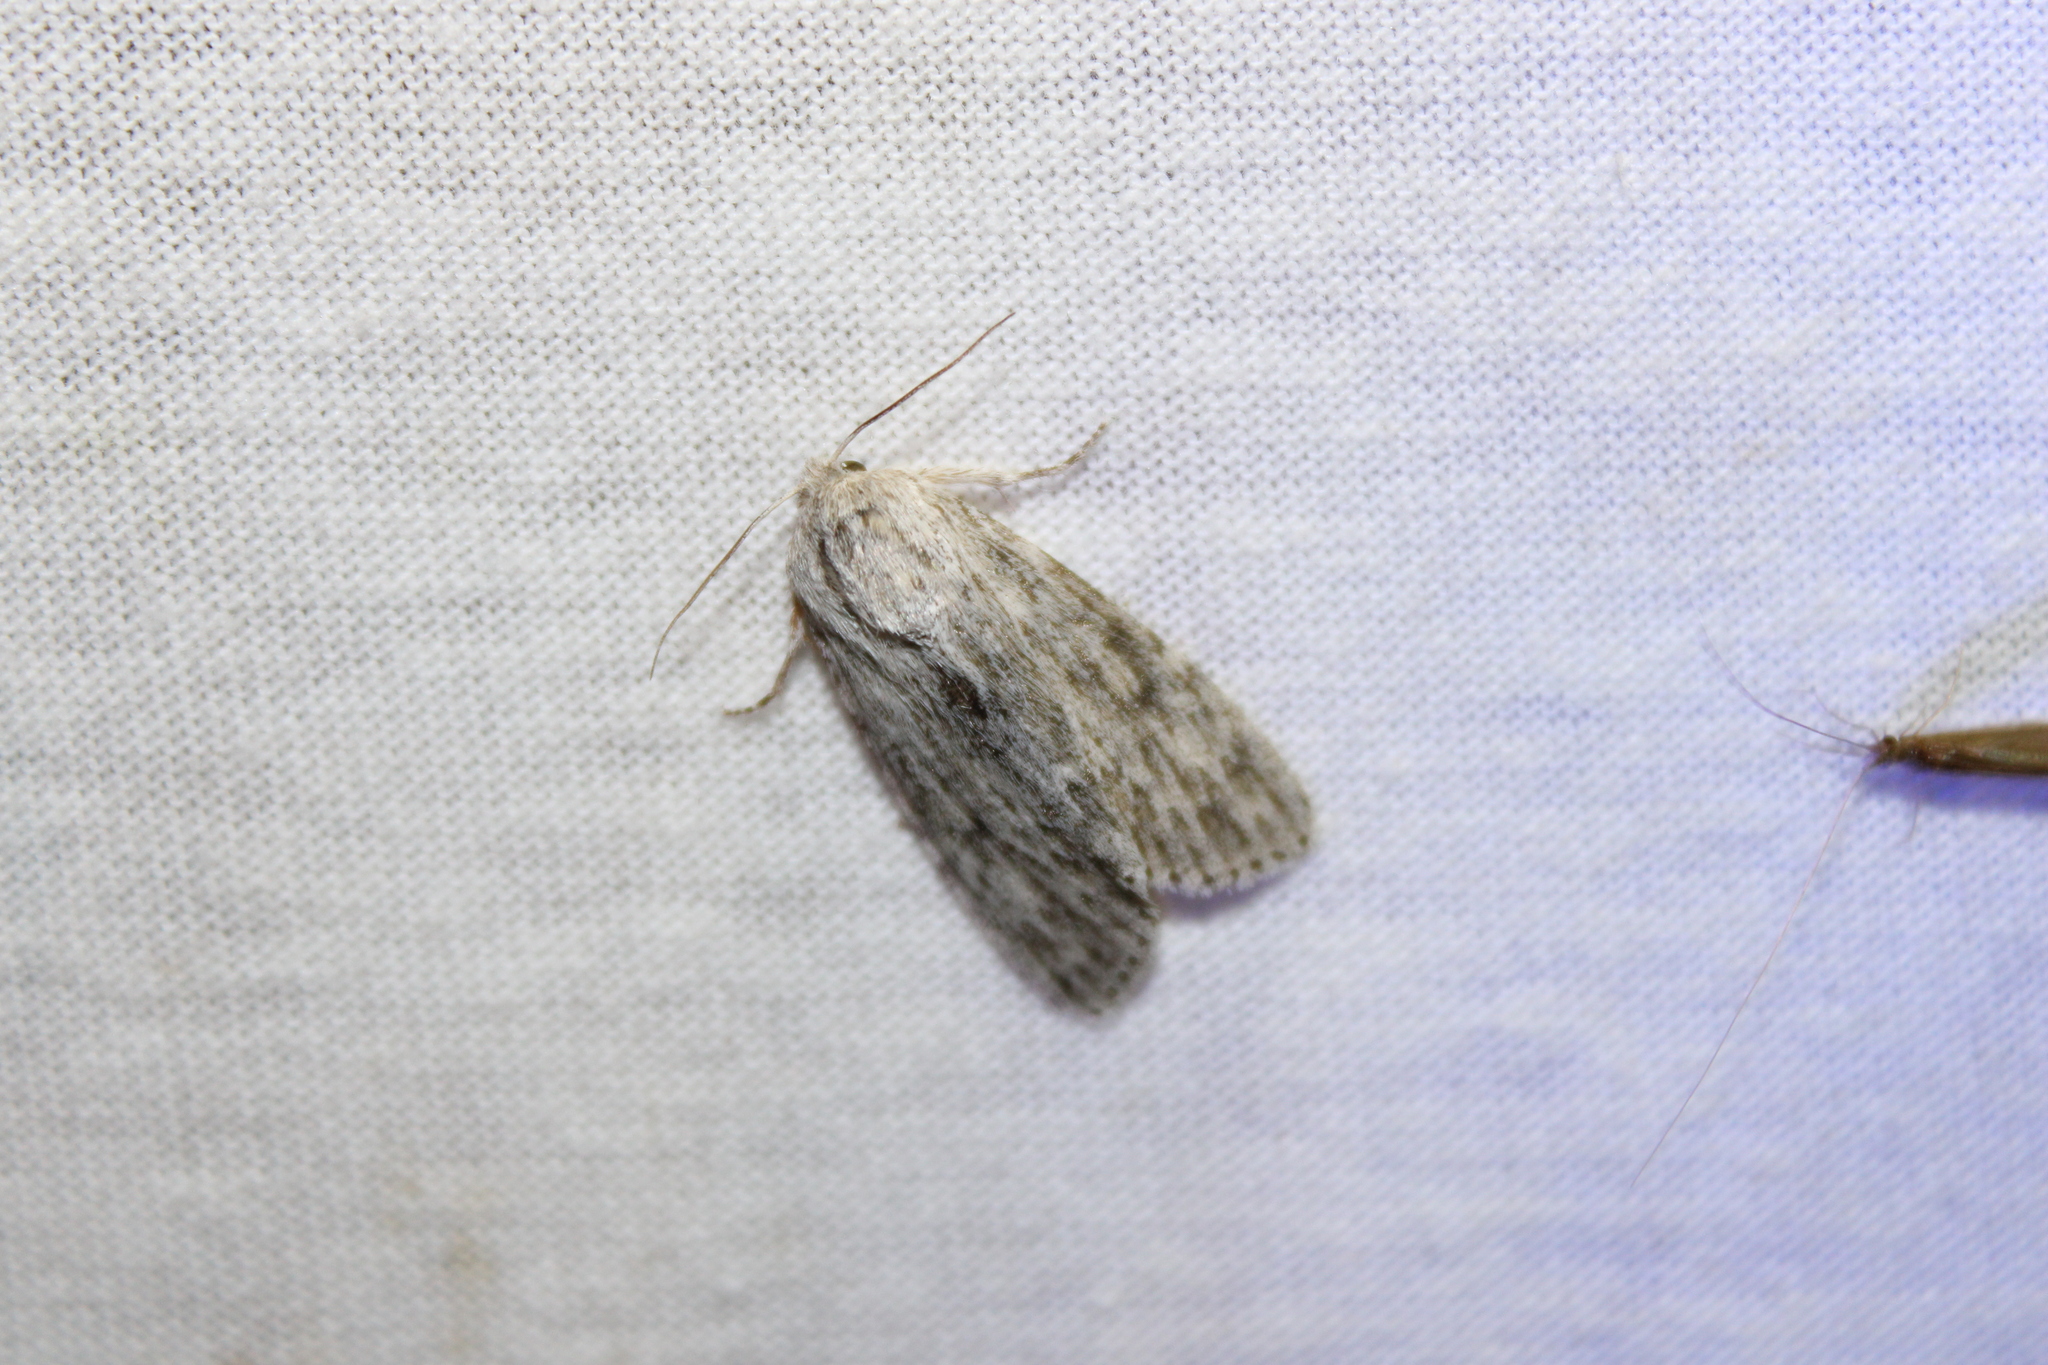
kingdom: Animalia
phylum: Arthropoda
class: Insecta
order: Lepidoptera
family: Noctuidae
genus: Acronicta
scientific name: Acronicta oblinita
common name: Smeared dagger
